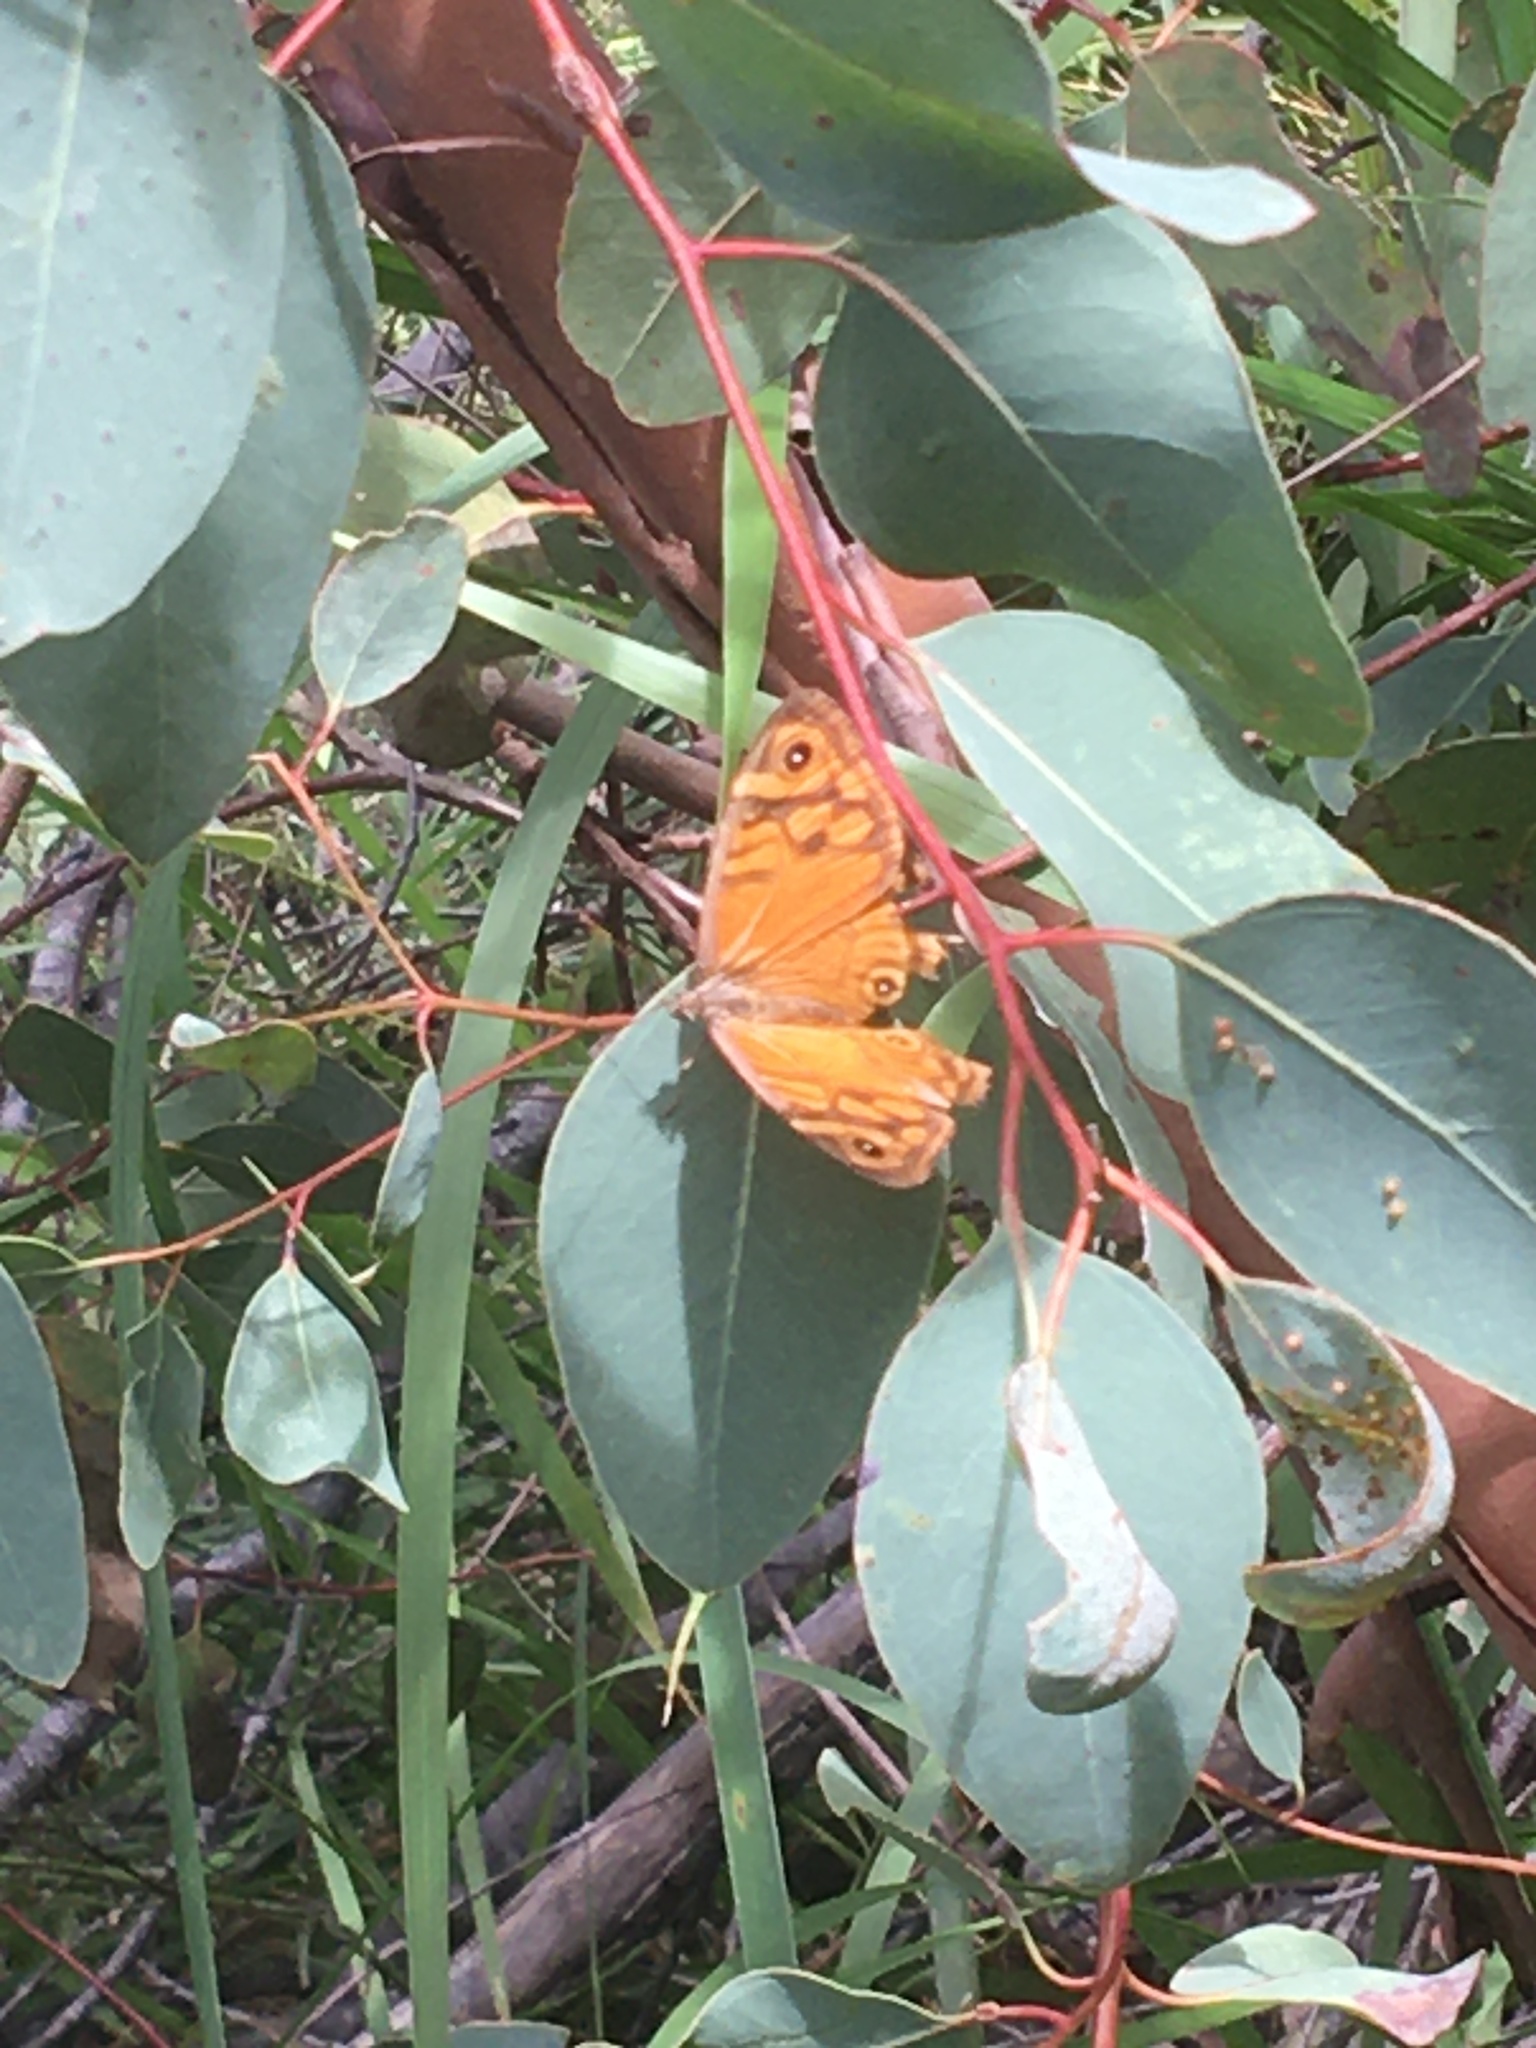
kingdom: Animalia
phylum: Arthropoda
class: Insecta
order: Lepidoptera
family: Nymphalidae
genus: Heteronympha
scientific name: Heteronympha merope
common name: Common brown
